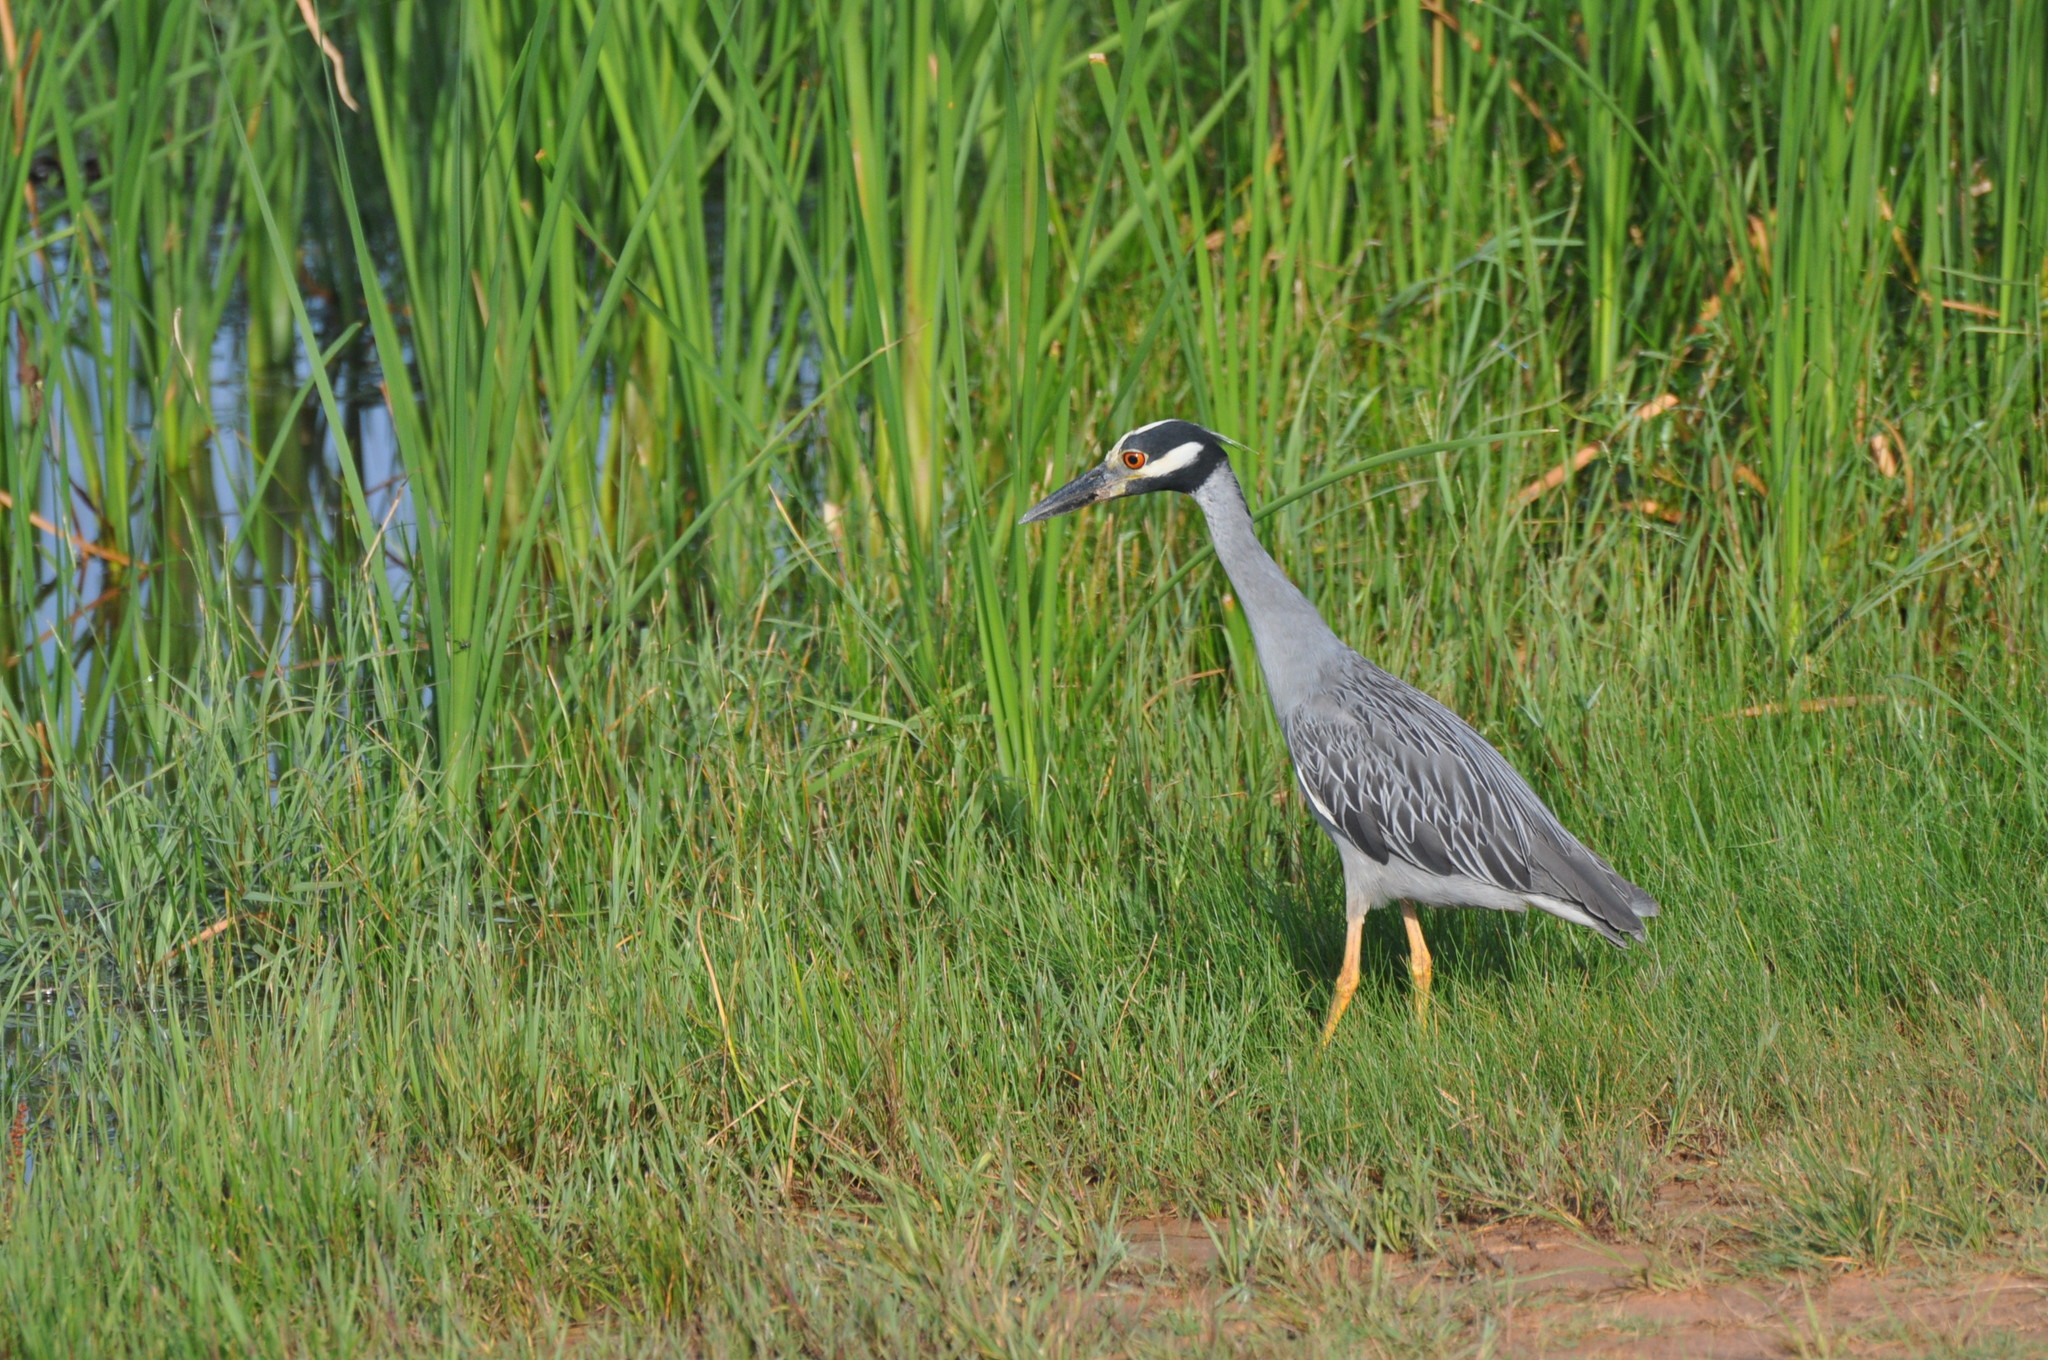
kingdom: Animalia
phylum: Chordata
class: Aves
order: Pelecaniformes
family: Ardeidae
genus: Nyctanassa
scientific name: Nyctanassa violacea
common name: Yellow-crowned night heron
